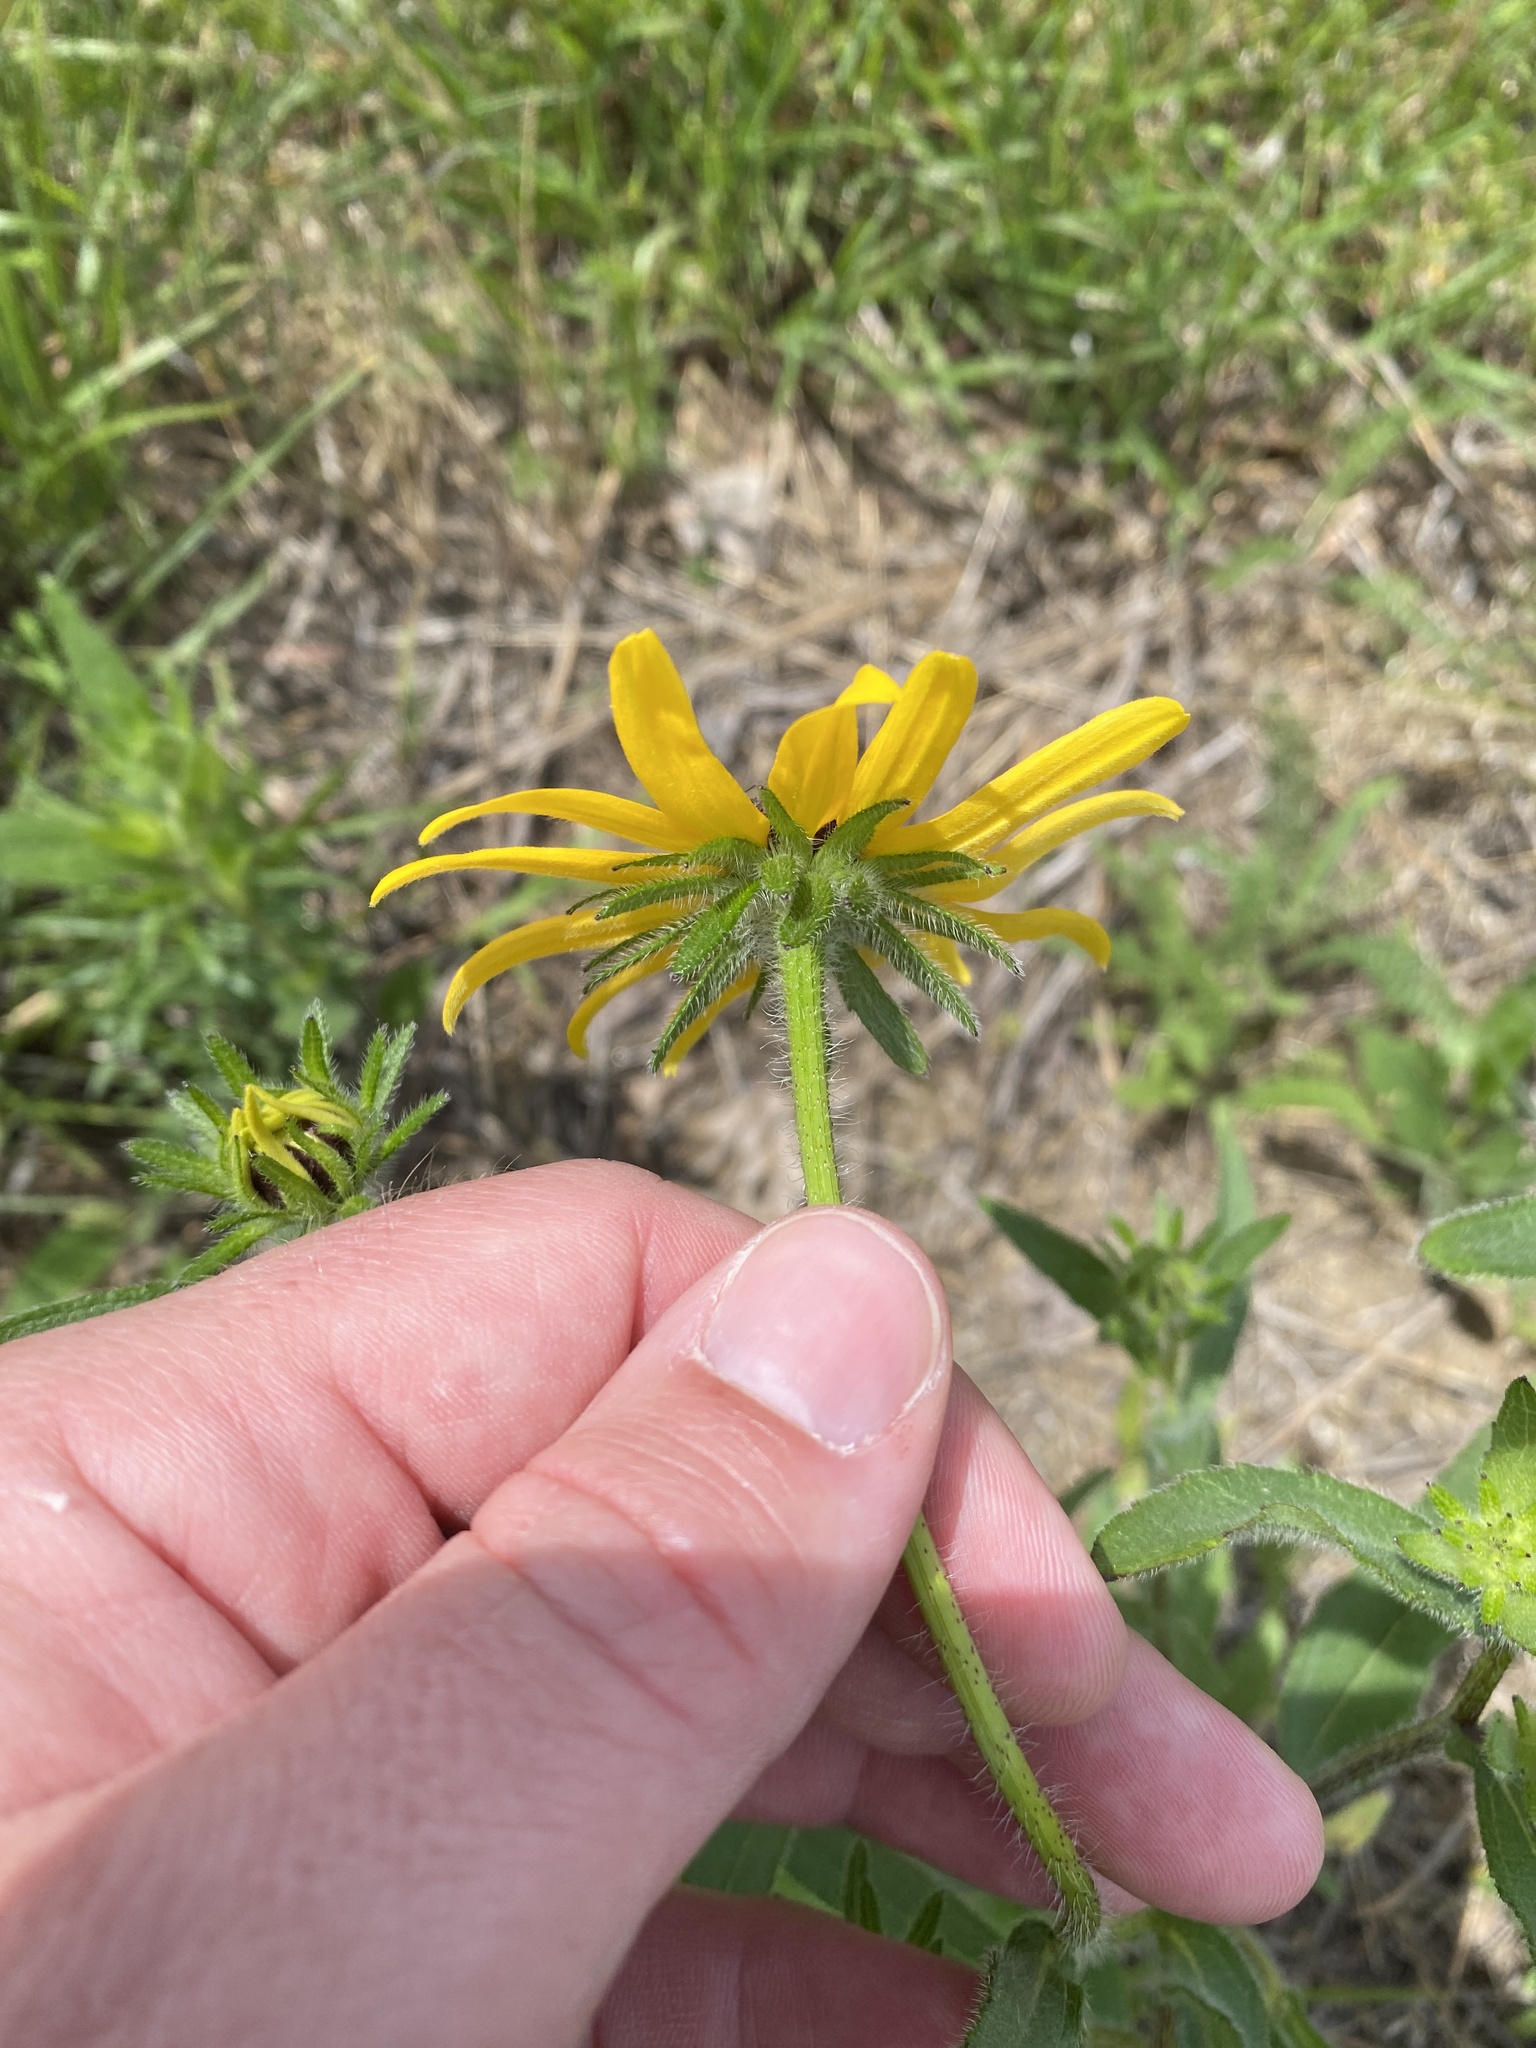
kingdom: Plantae
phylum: Tracheophyta
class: Magnoliopsida
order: Asterales
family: Asteraceae
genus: Rudbeckia
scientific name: Rudbeckia hirta
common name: Black-eyed-susan
